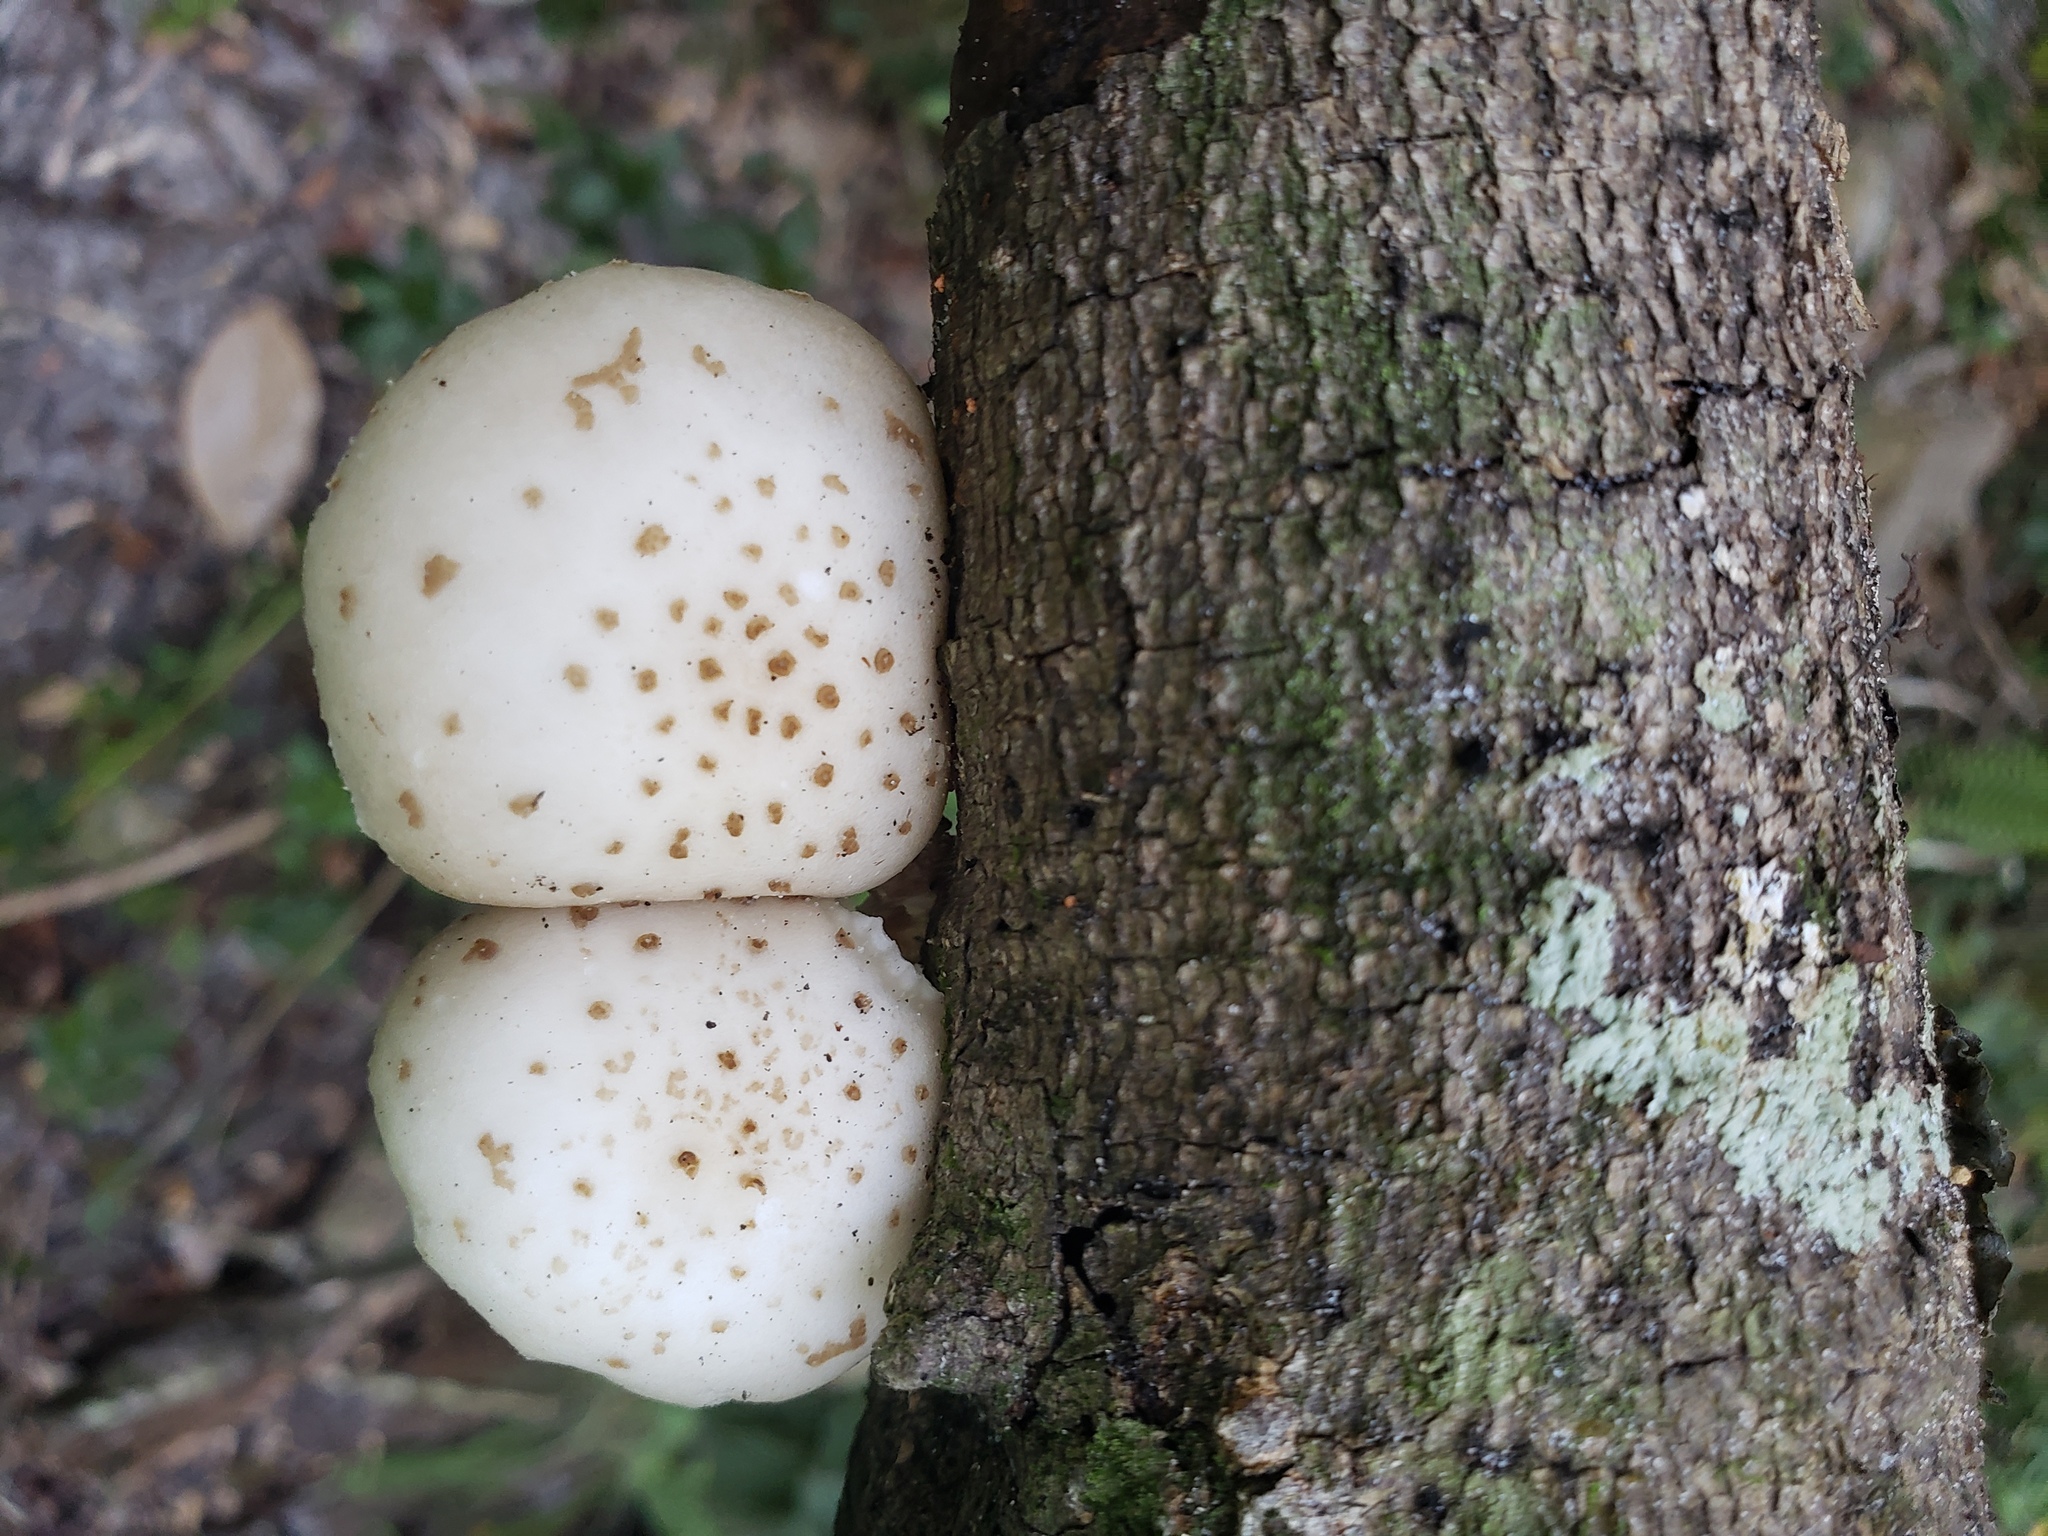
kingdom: Fungi
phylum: Basidiomycota
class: Agaricomycetes
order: Agaricales
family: Physalacriaceae
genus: Oudemansiella
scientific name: Oudemansiella canarii
